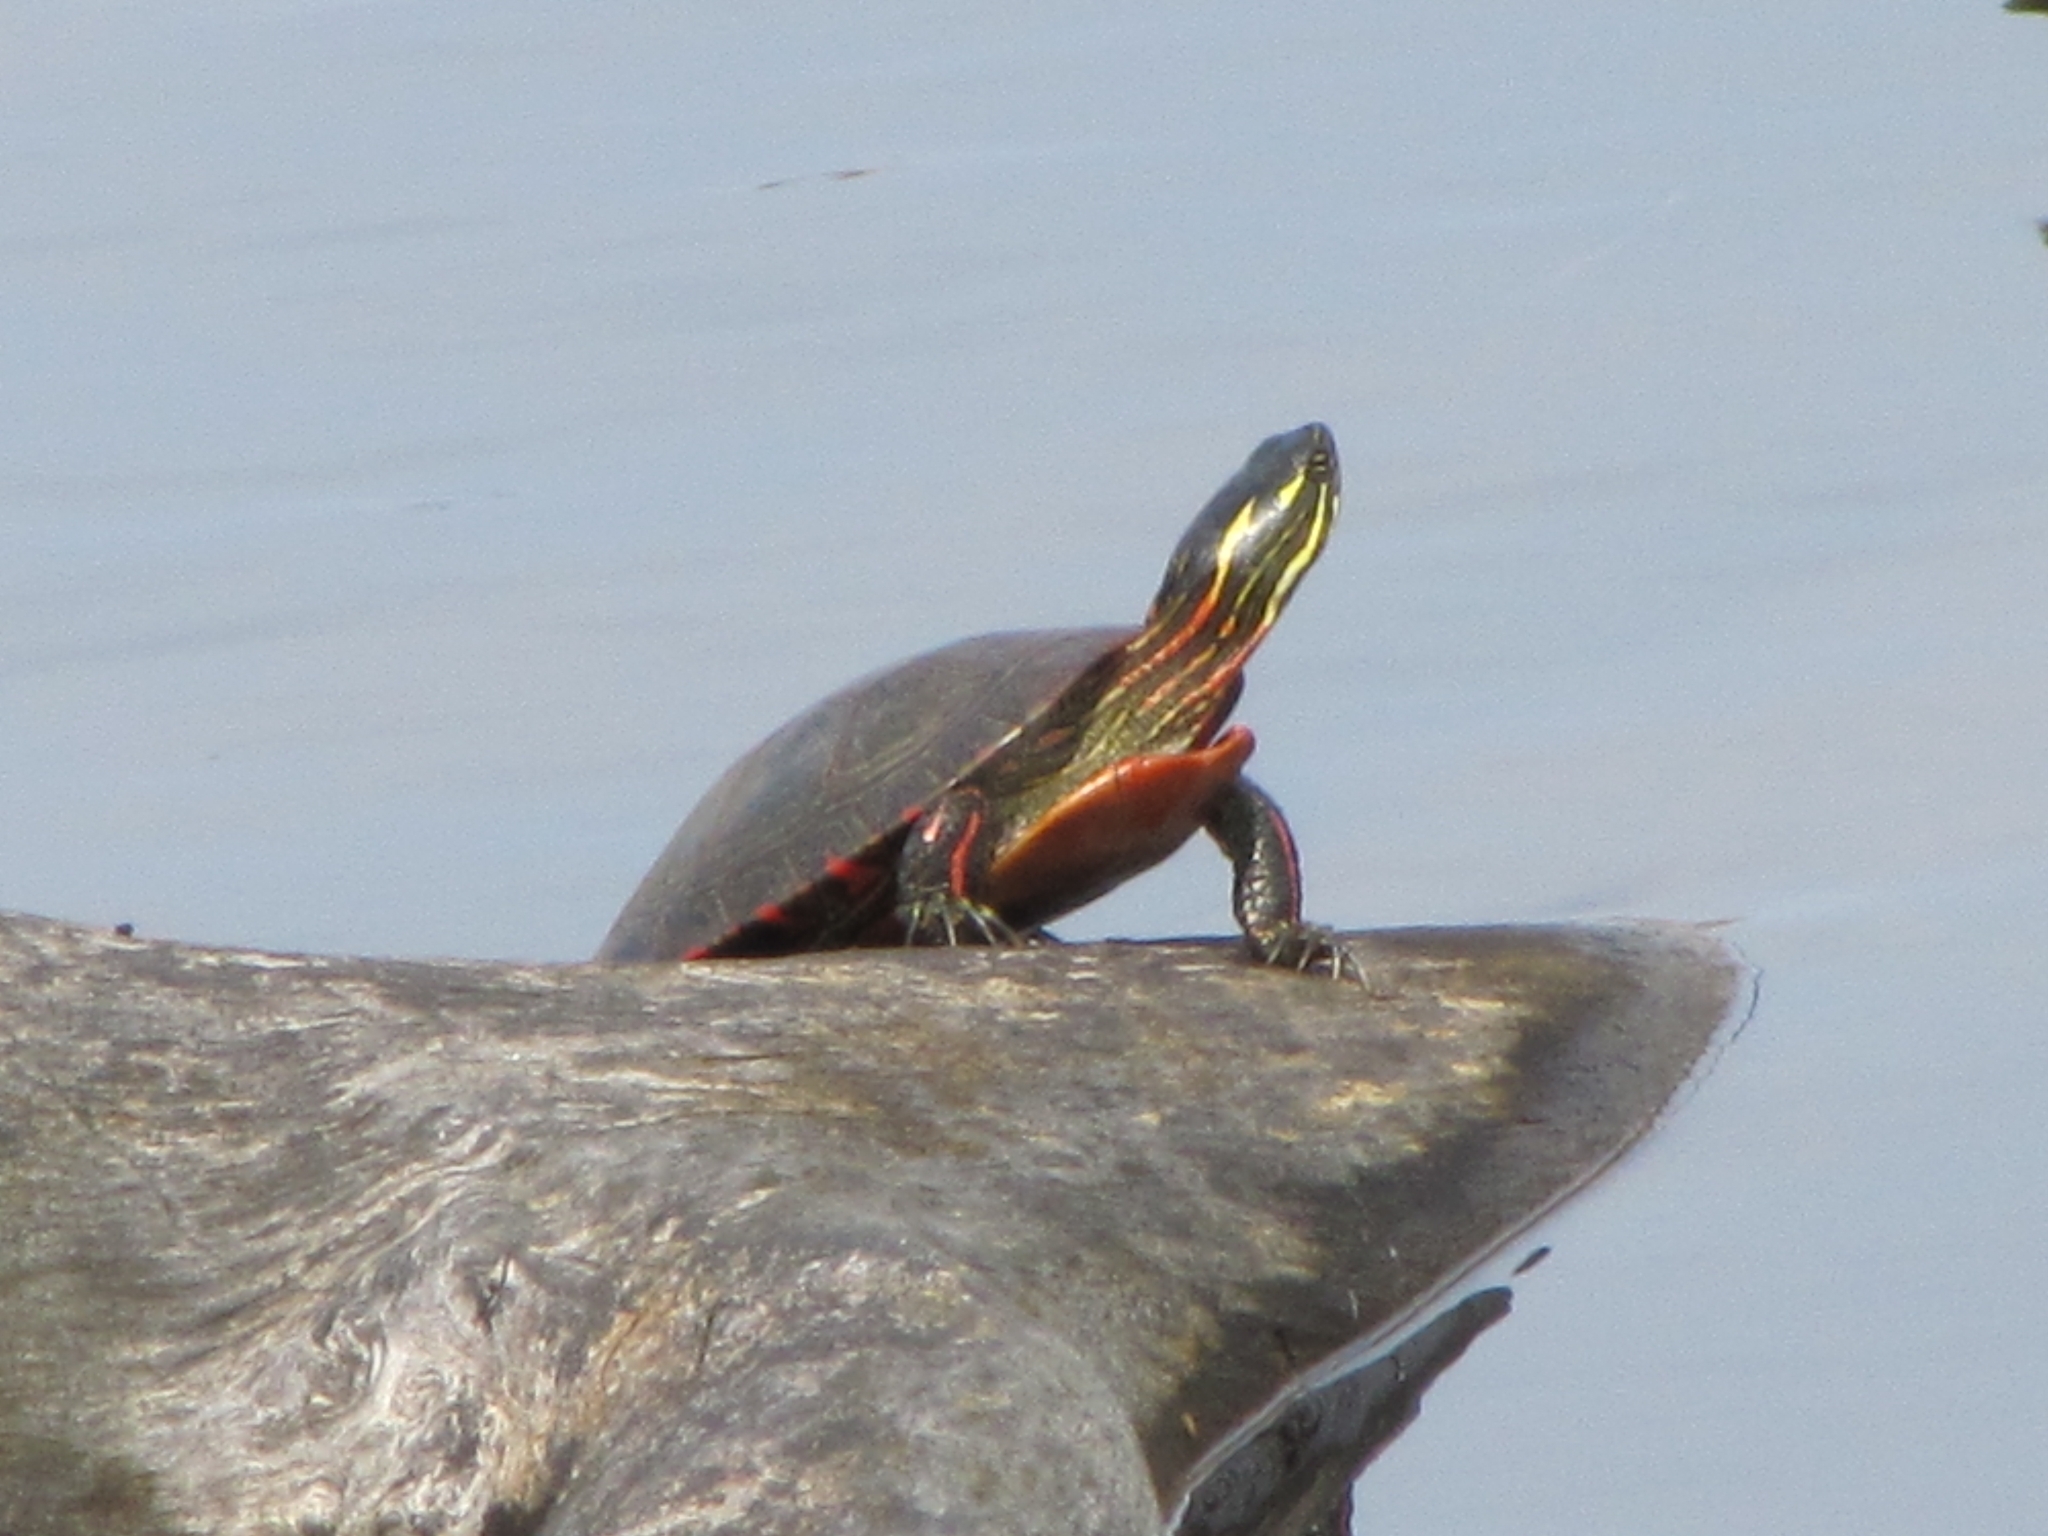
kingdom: Animalia
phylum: Chordata
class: Testudines
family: Emydidae
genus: Chrysemys
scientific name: Chrysemys picta
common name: Painted turtle
